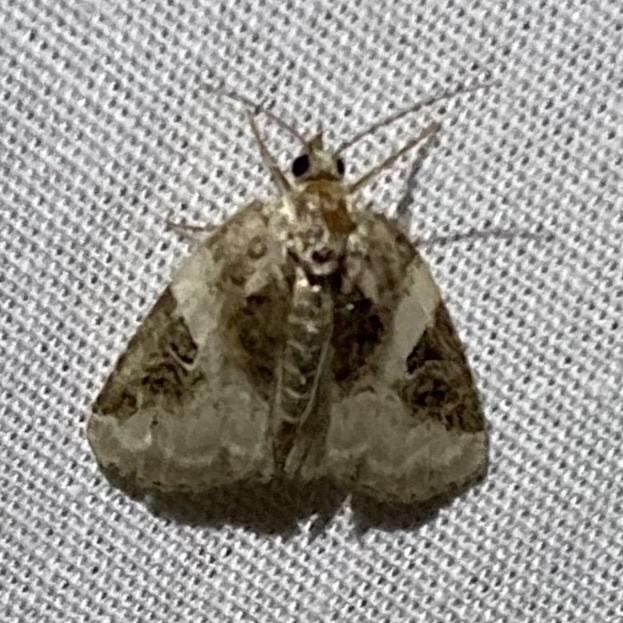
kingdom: Animalia
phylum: Arthropoda
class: Insecta
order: Lepidoptera
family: Noctuidae
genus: Pseudeustrotia
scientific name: Pseudeustrotia carneola
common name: Pink-barred lithacodia moth
